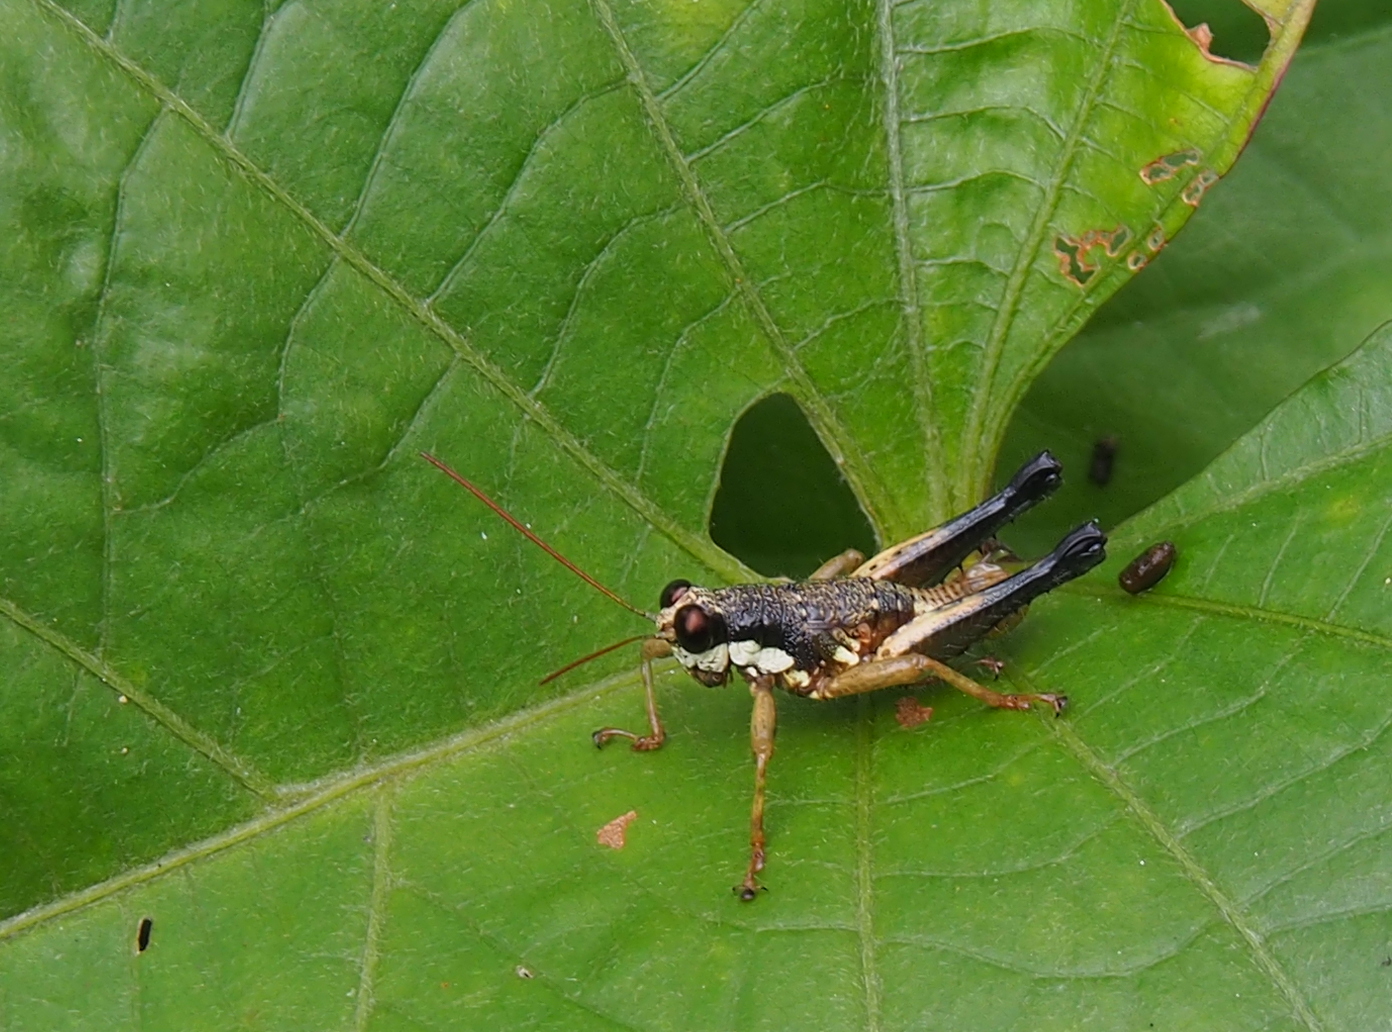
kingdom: Animalia
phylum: Arthropoda
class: Insecta
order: Orthoptera
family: Acrididae
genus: Rhachicreagra
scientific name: Rhachicreagra nothra
